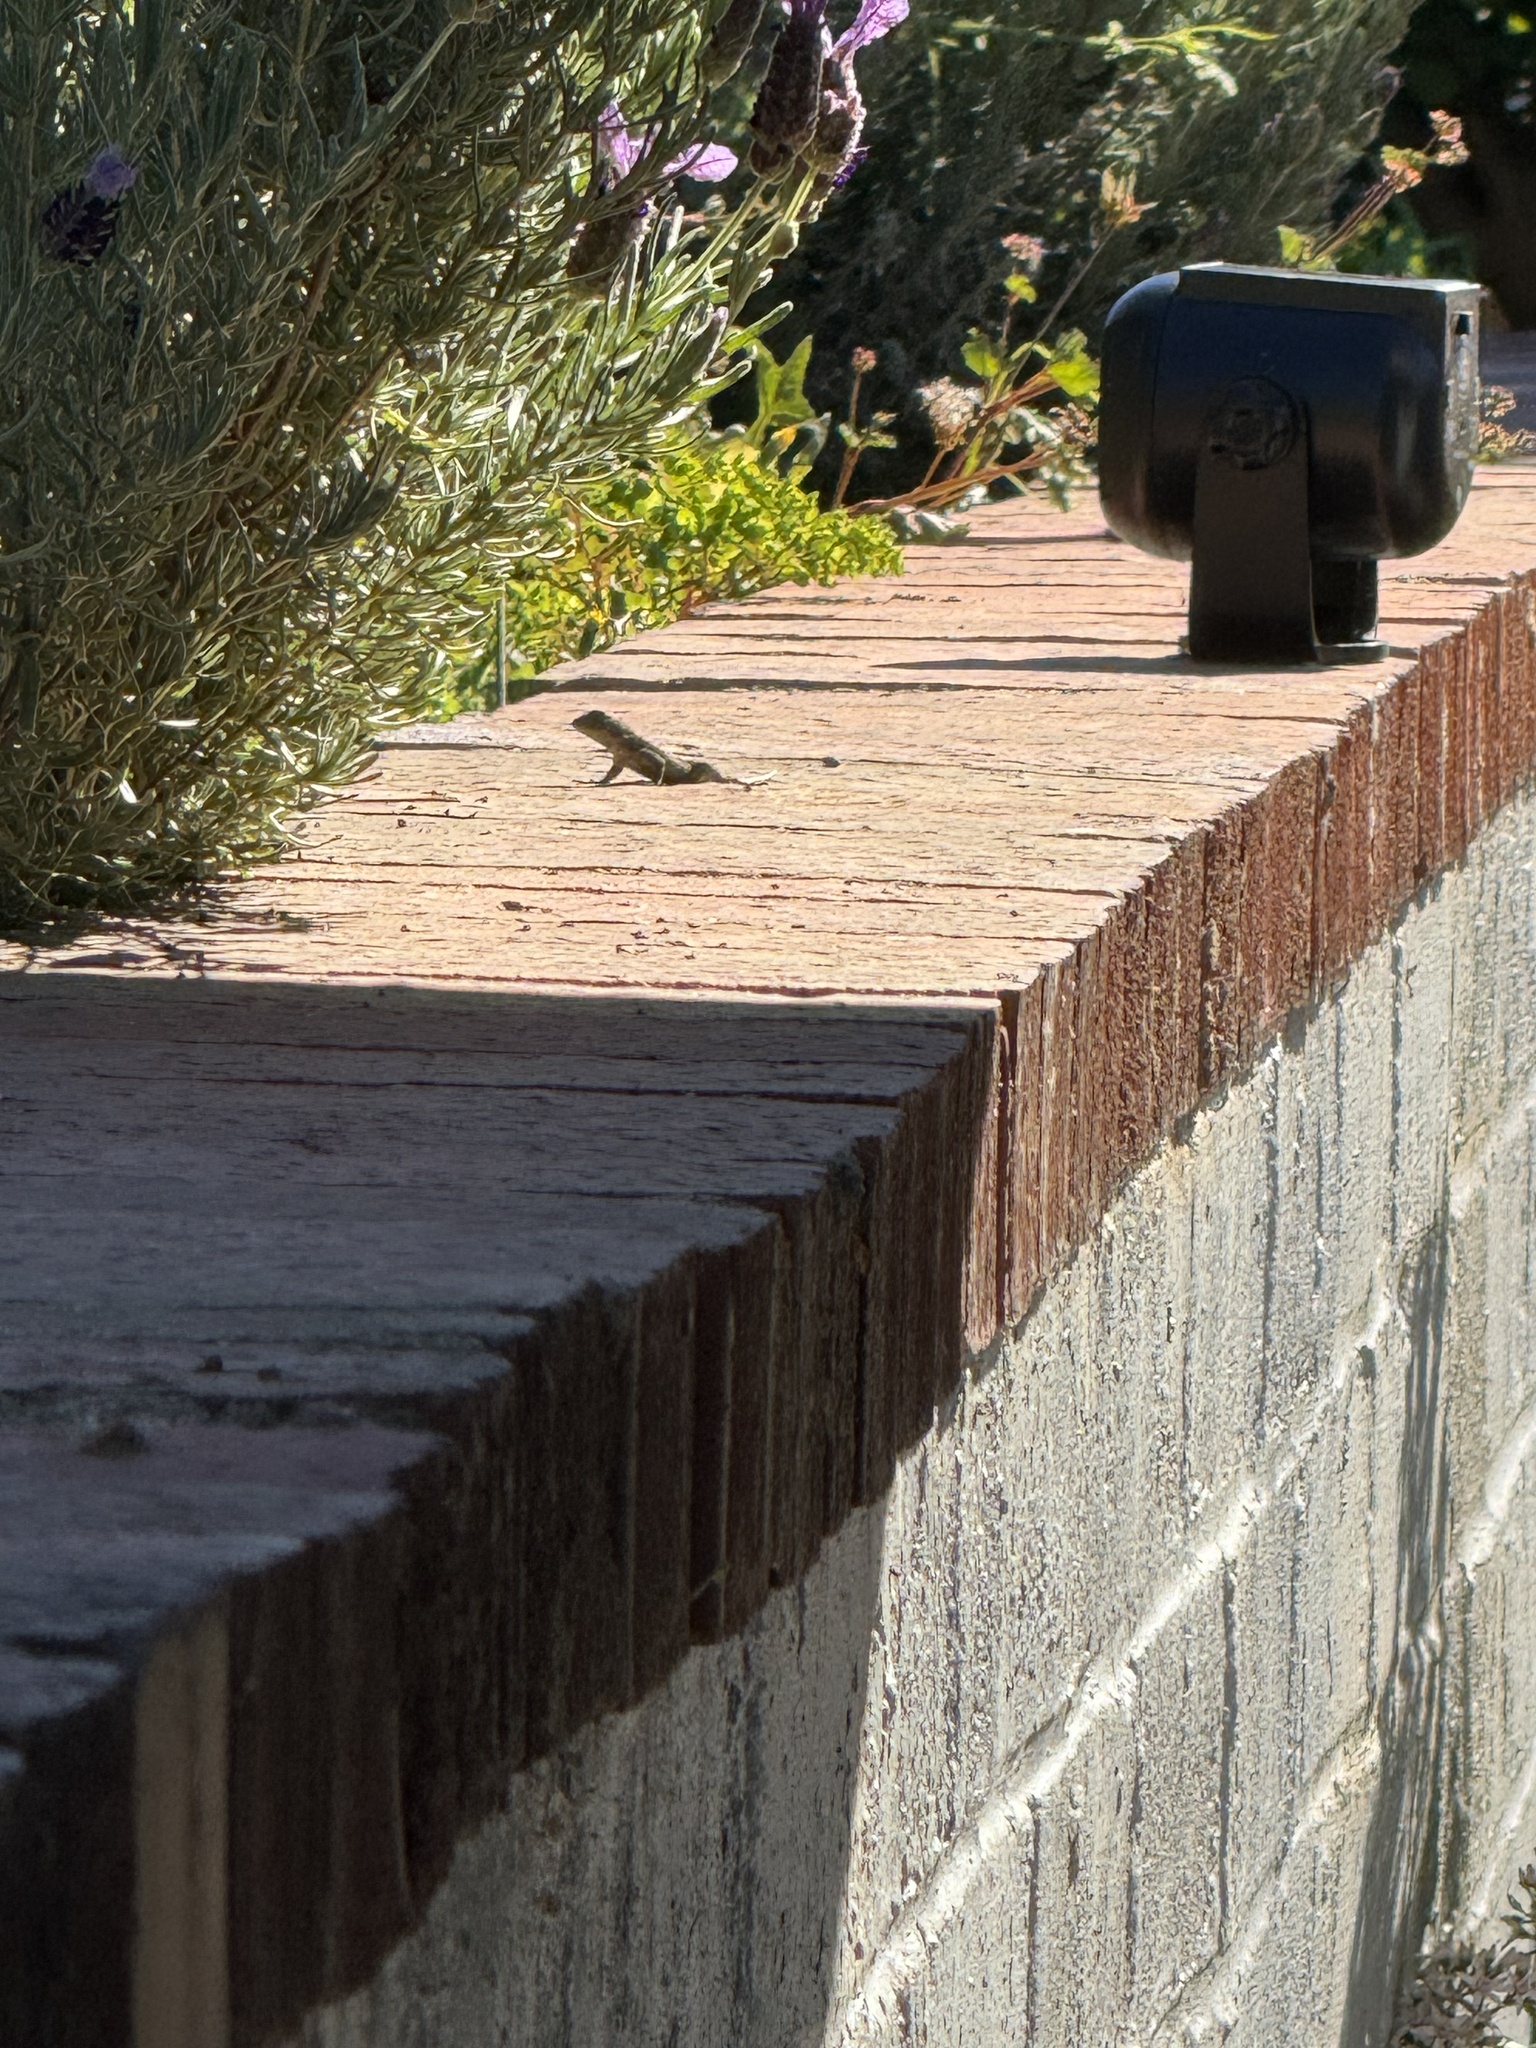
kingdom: Animalia
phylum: Chordata
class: Squamata
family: Phrynosomatidae
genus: Sceloporus
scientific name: Sceloporus occidentalis
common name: Western fence lizard
